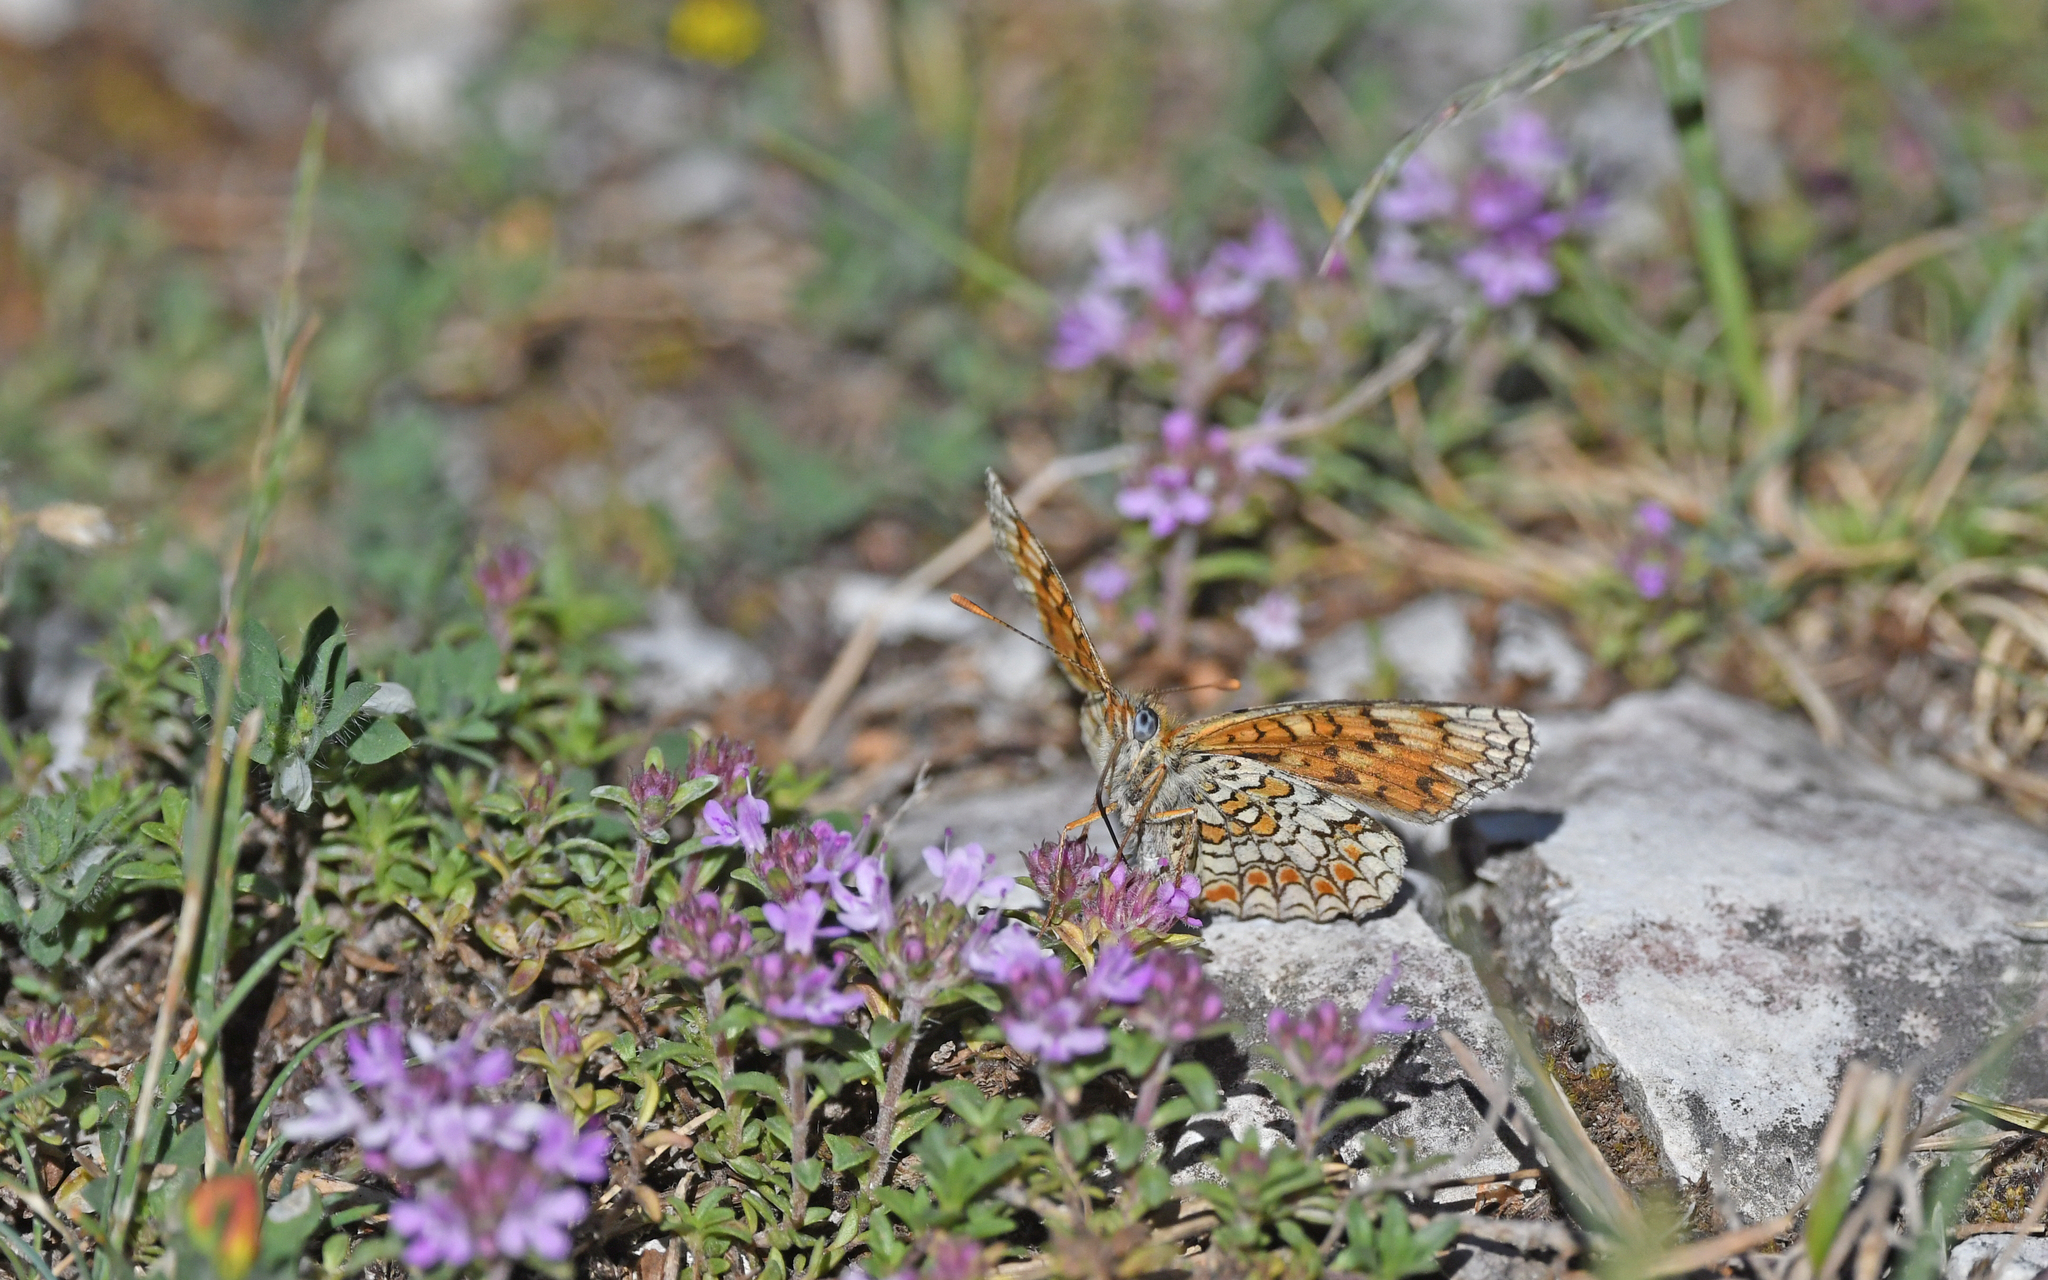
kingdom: Animalia
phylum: Arthropoda
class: Insecta
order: Lepidoptera
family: Nymphalidae
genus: Melitaea
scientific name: Melitaea phoebe
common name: Knapweed fritillary
